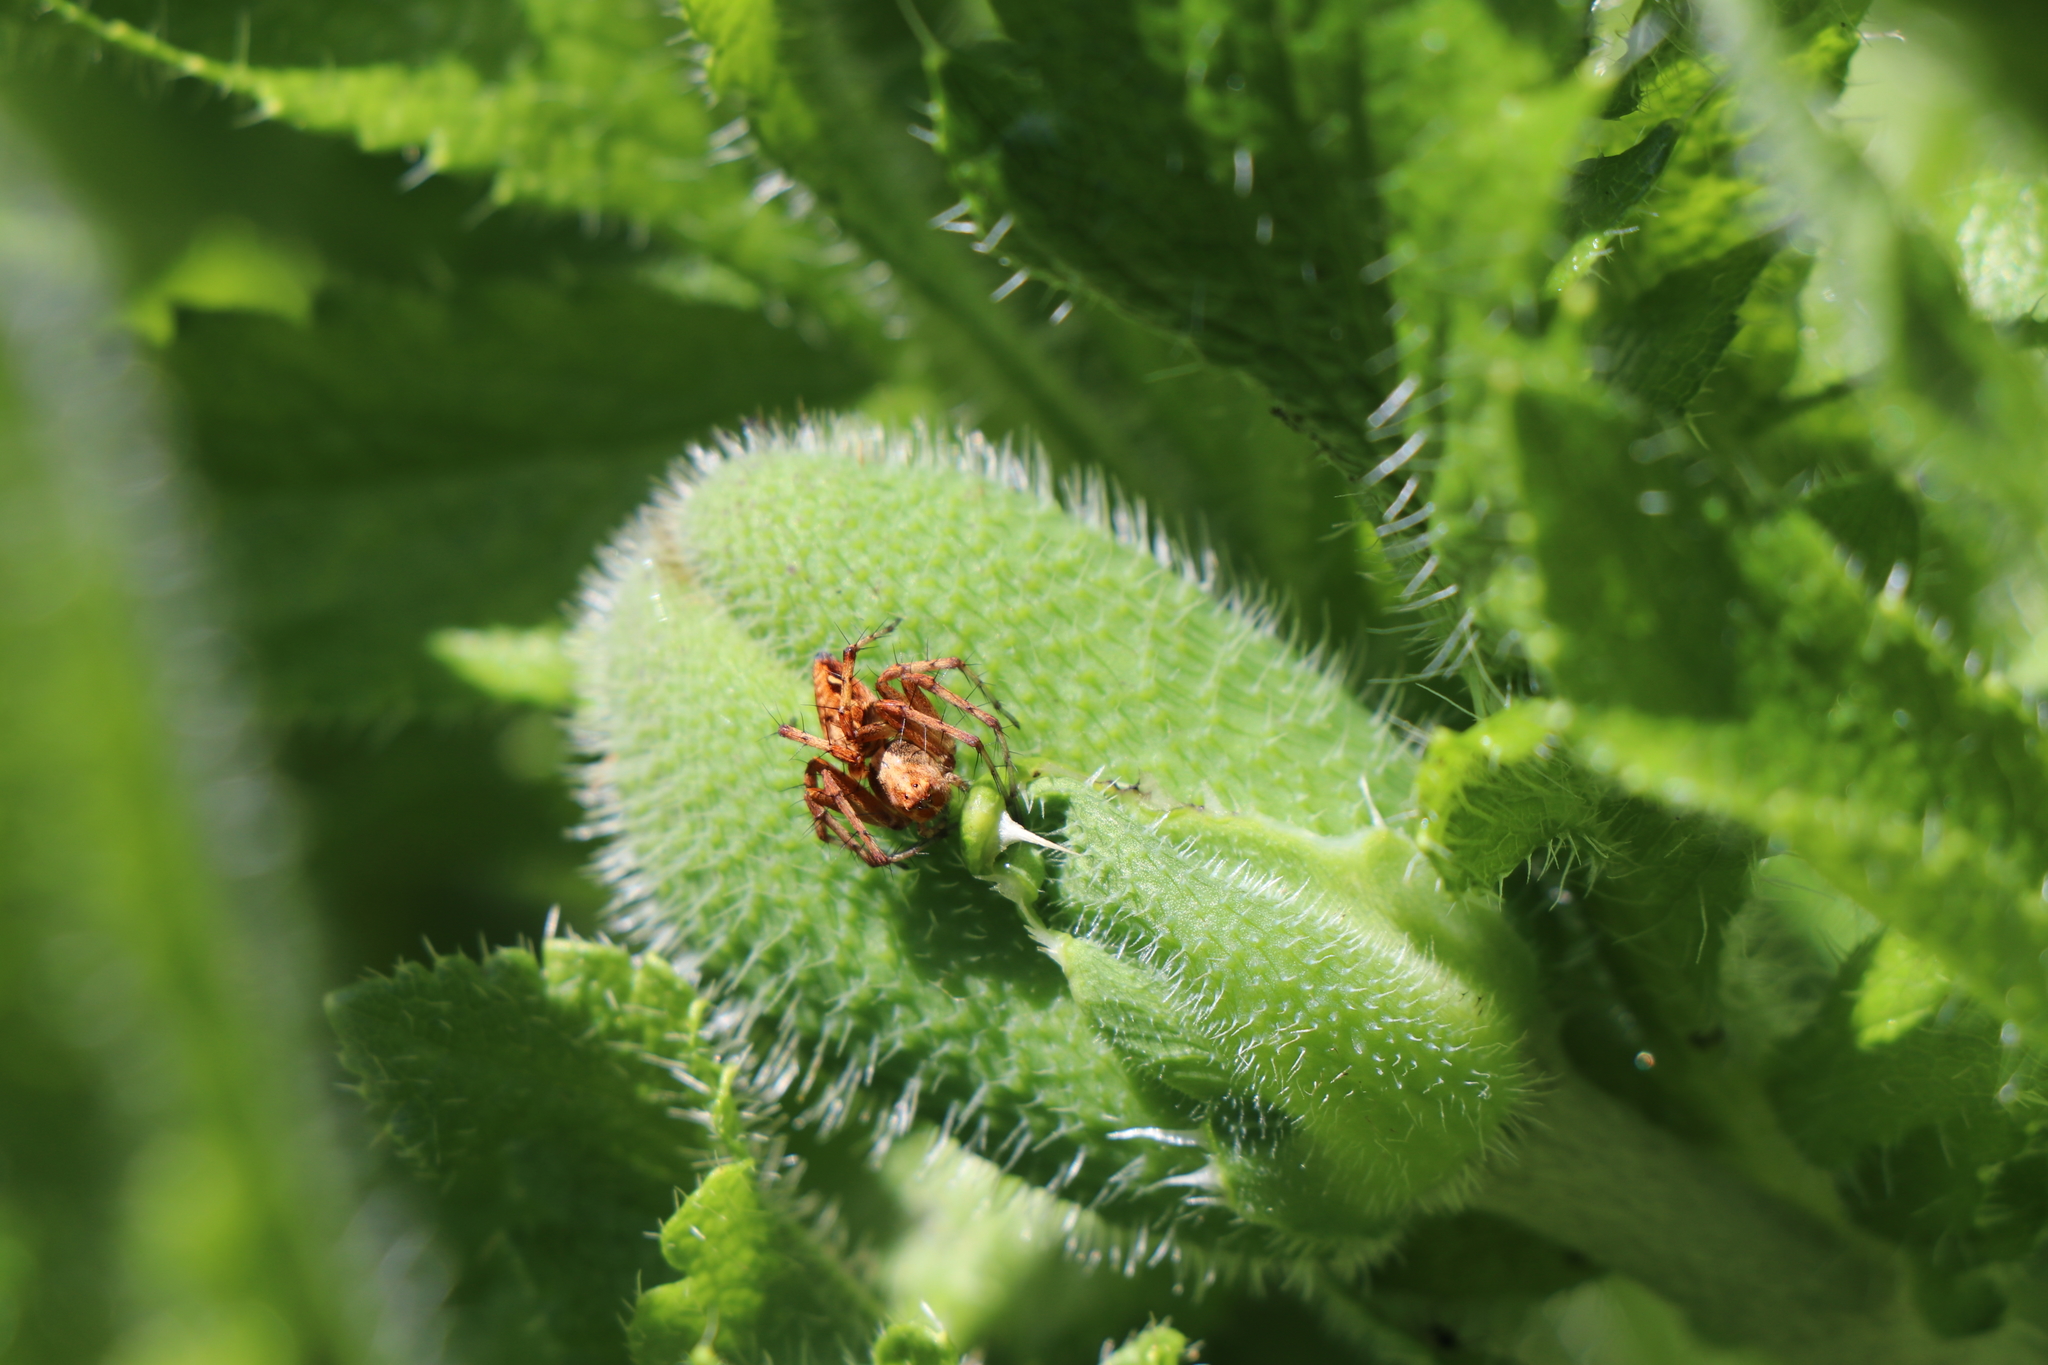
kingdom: Animalia
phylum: Arthropoda
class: Arachnida
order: Araneae
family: Oxyopidae
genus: Oxyopes
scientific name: Oxyopes scalaris
